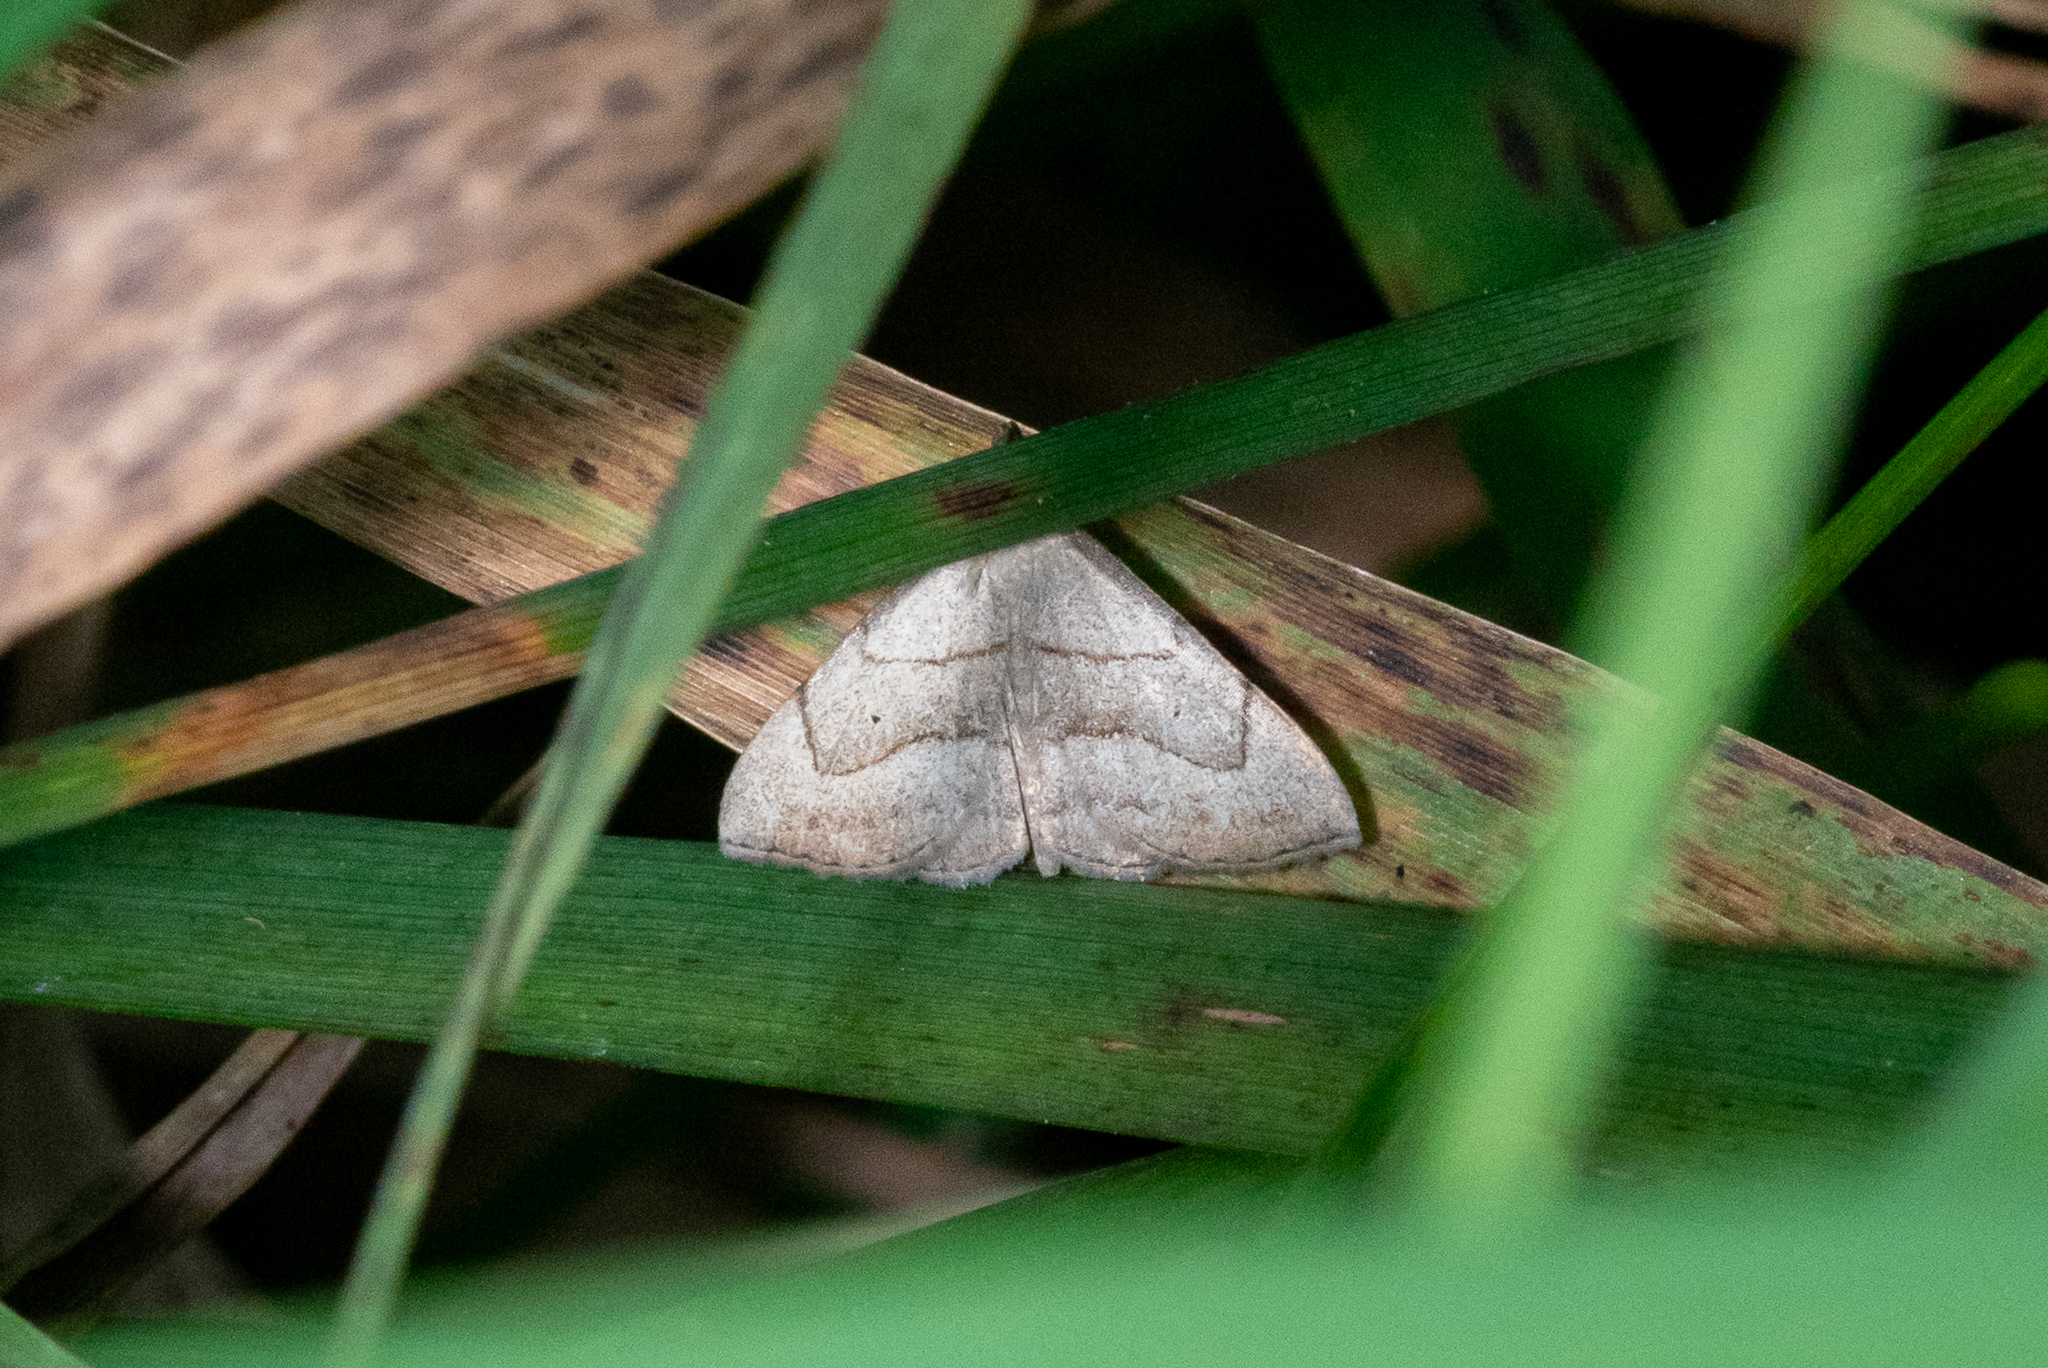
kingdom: Animalia
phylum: Arthropoda
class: Insecta
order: Lepidoptera
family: Erebidae
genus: Macrochilo
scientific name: Macrochilo litophora
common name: Brown-lined owlet
